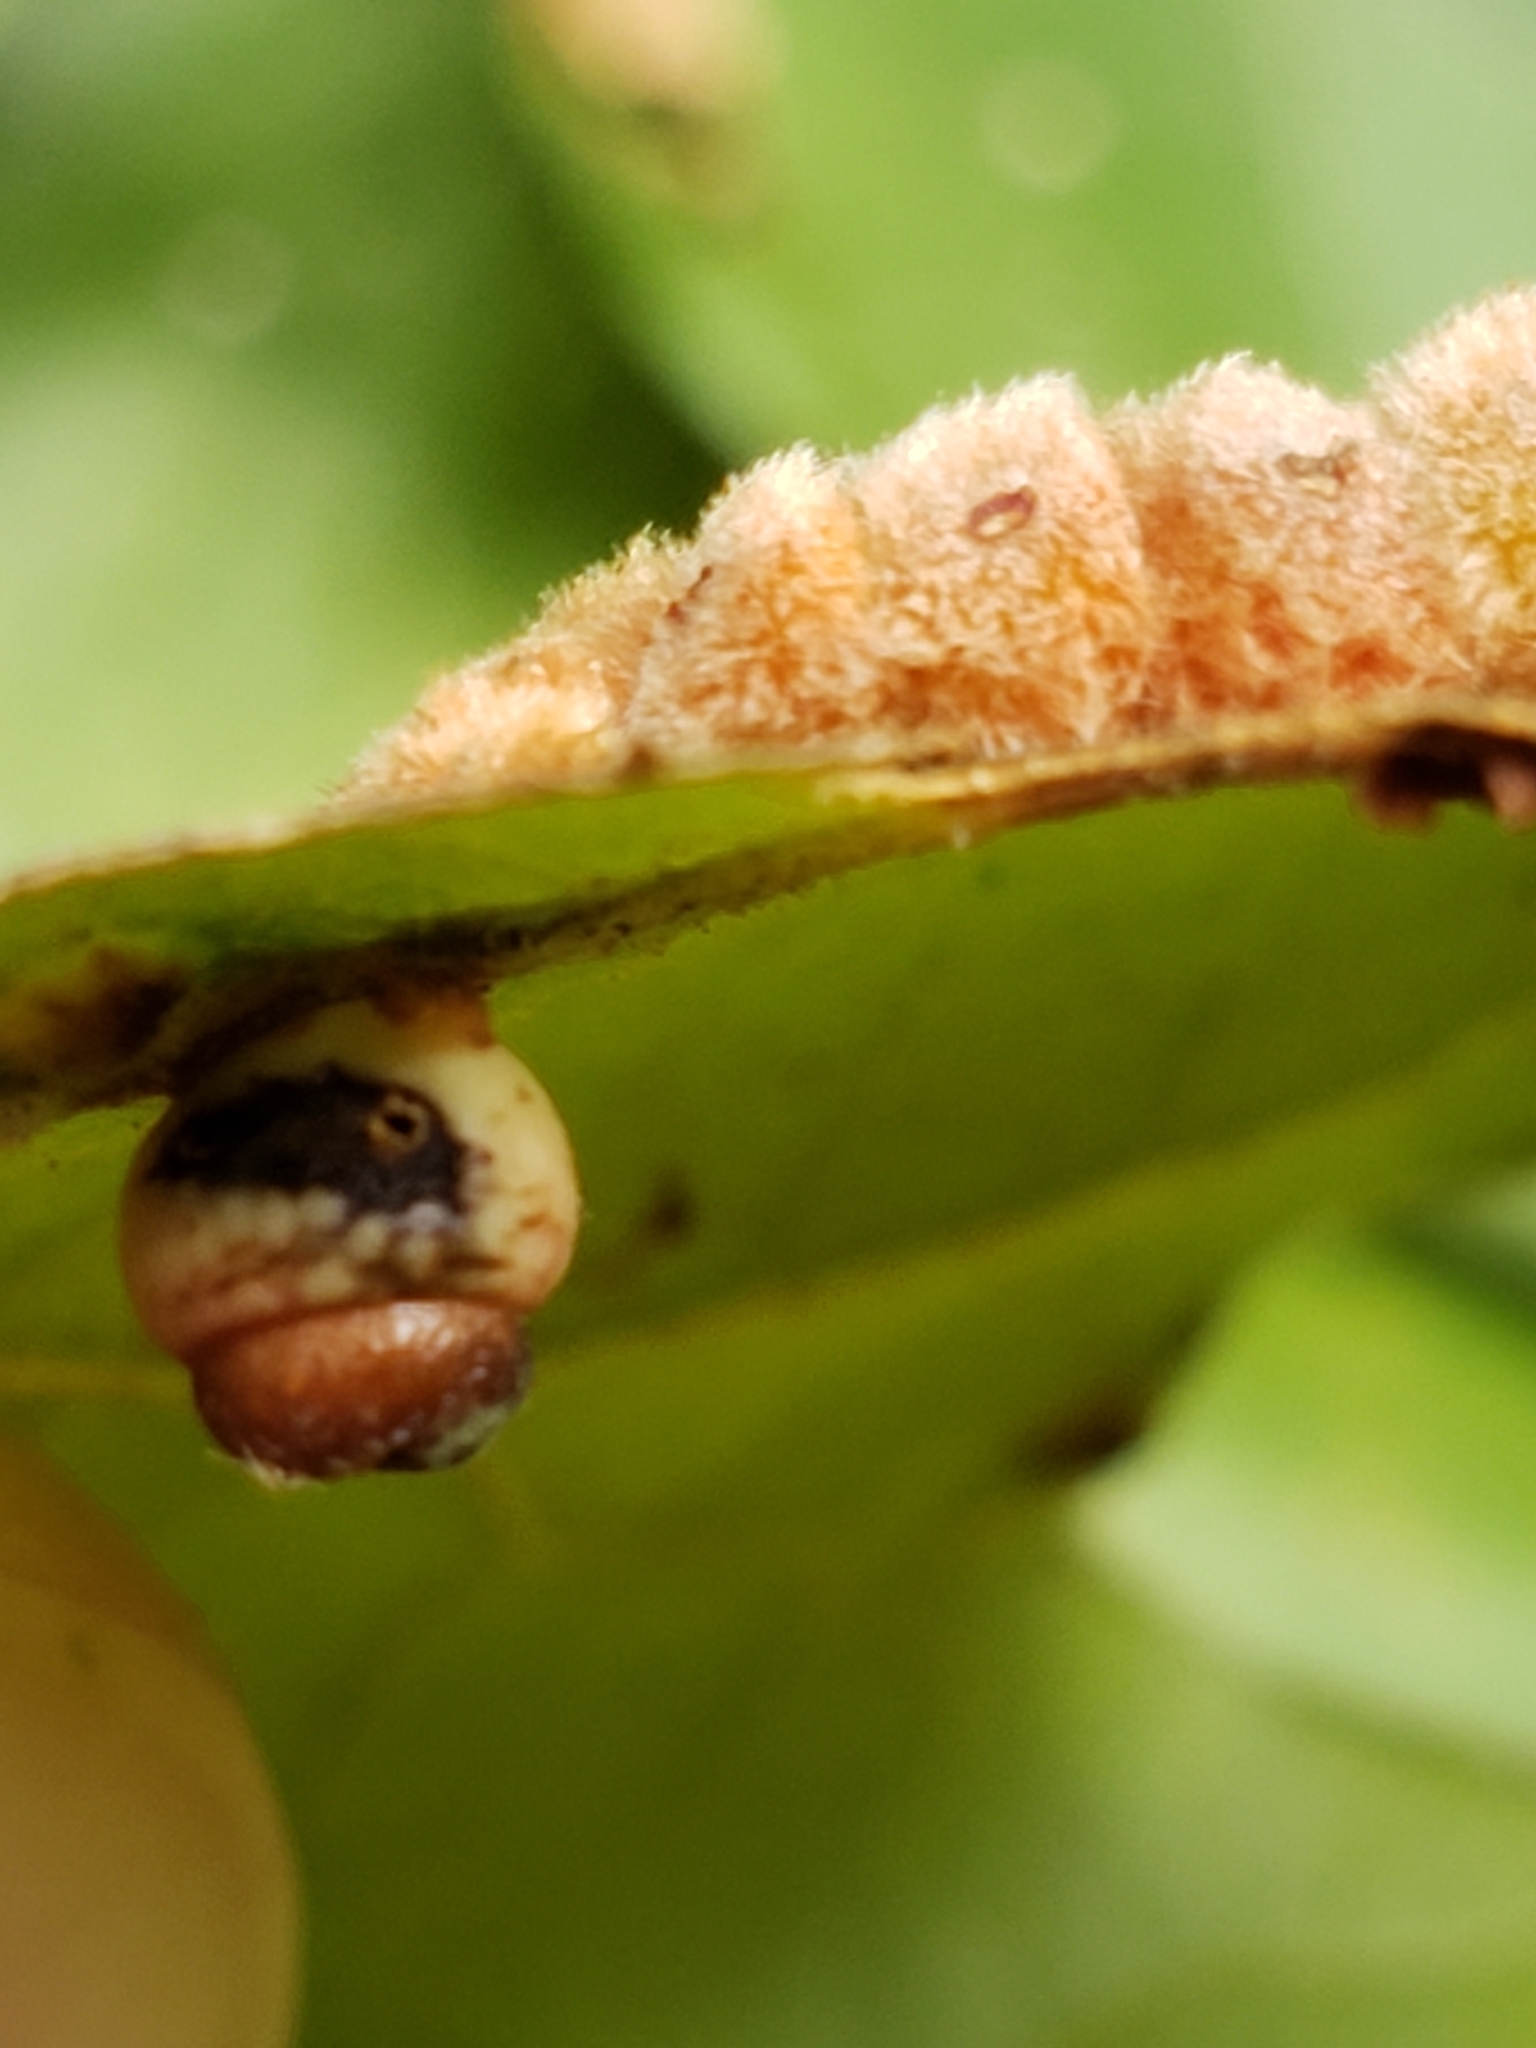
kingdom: Animalia
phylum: Arthropoda
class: Insecta
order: Hymenoptera
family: Cynipidae
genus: Kokkocynips
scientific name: Kokkocynips rileyi
